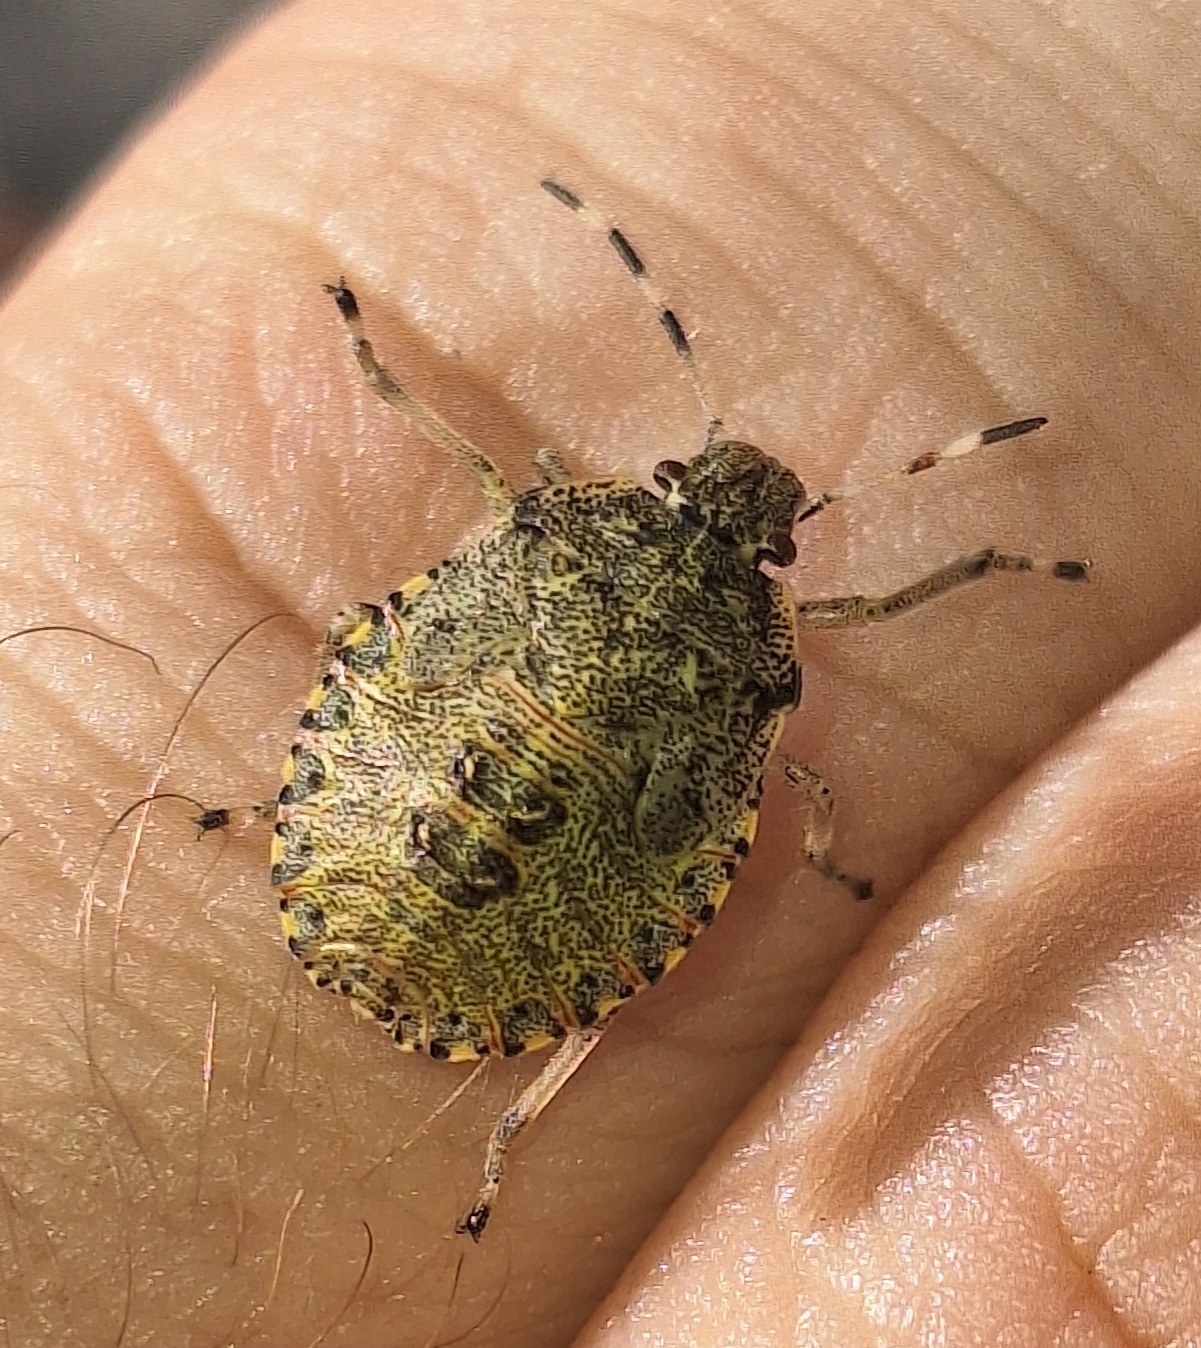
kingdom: Animalia
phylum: Arthropoda
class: Insecta
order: Hemiptera
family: Pentatomidae
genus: Rhaphigaster
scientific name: Rhaphigaster nebulosa
